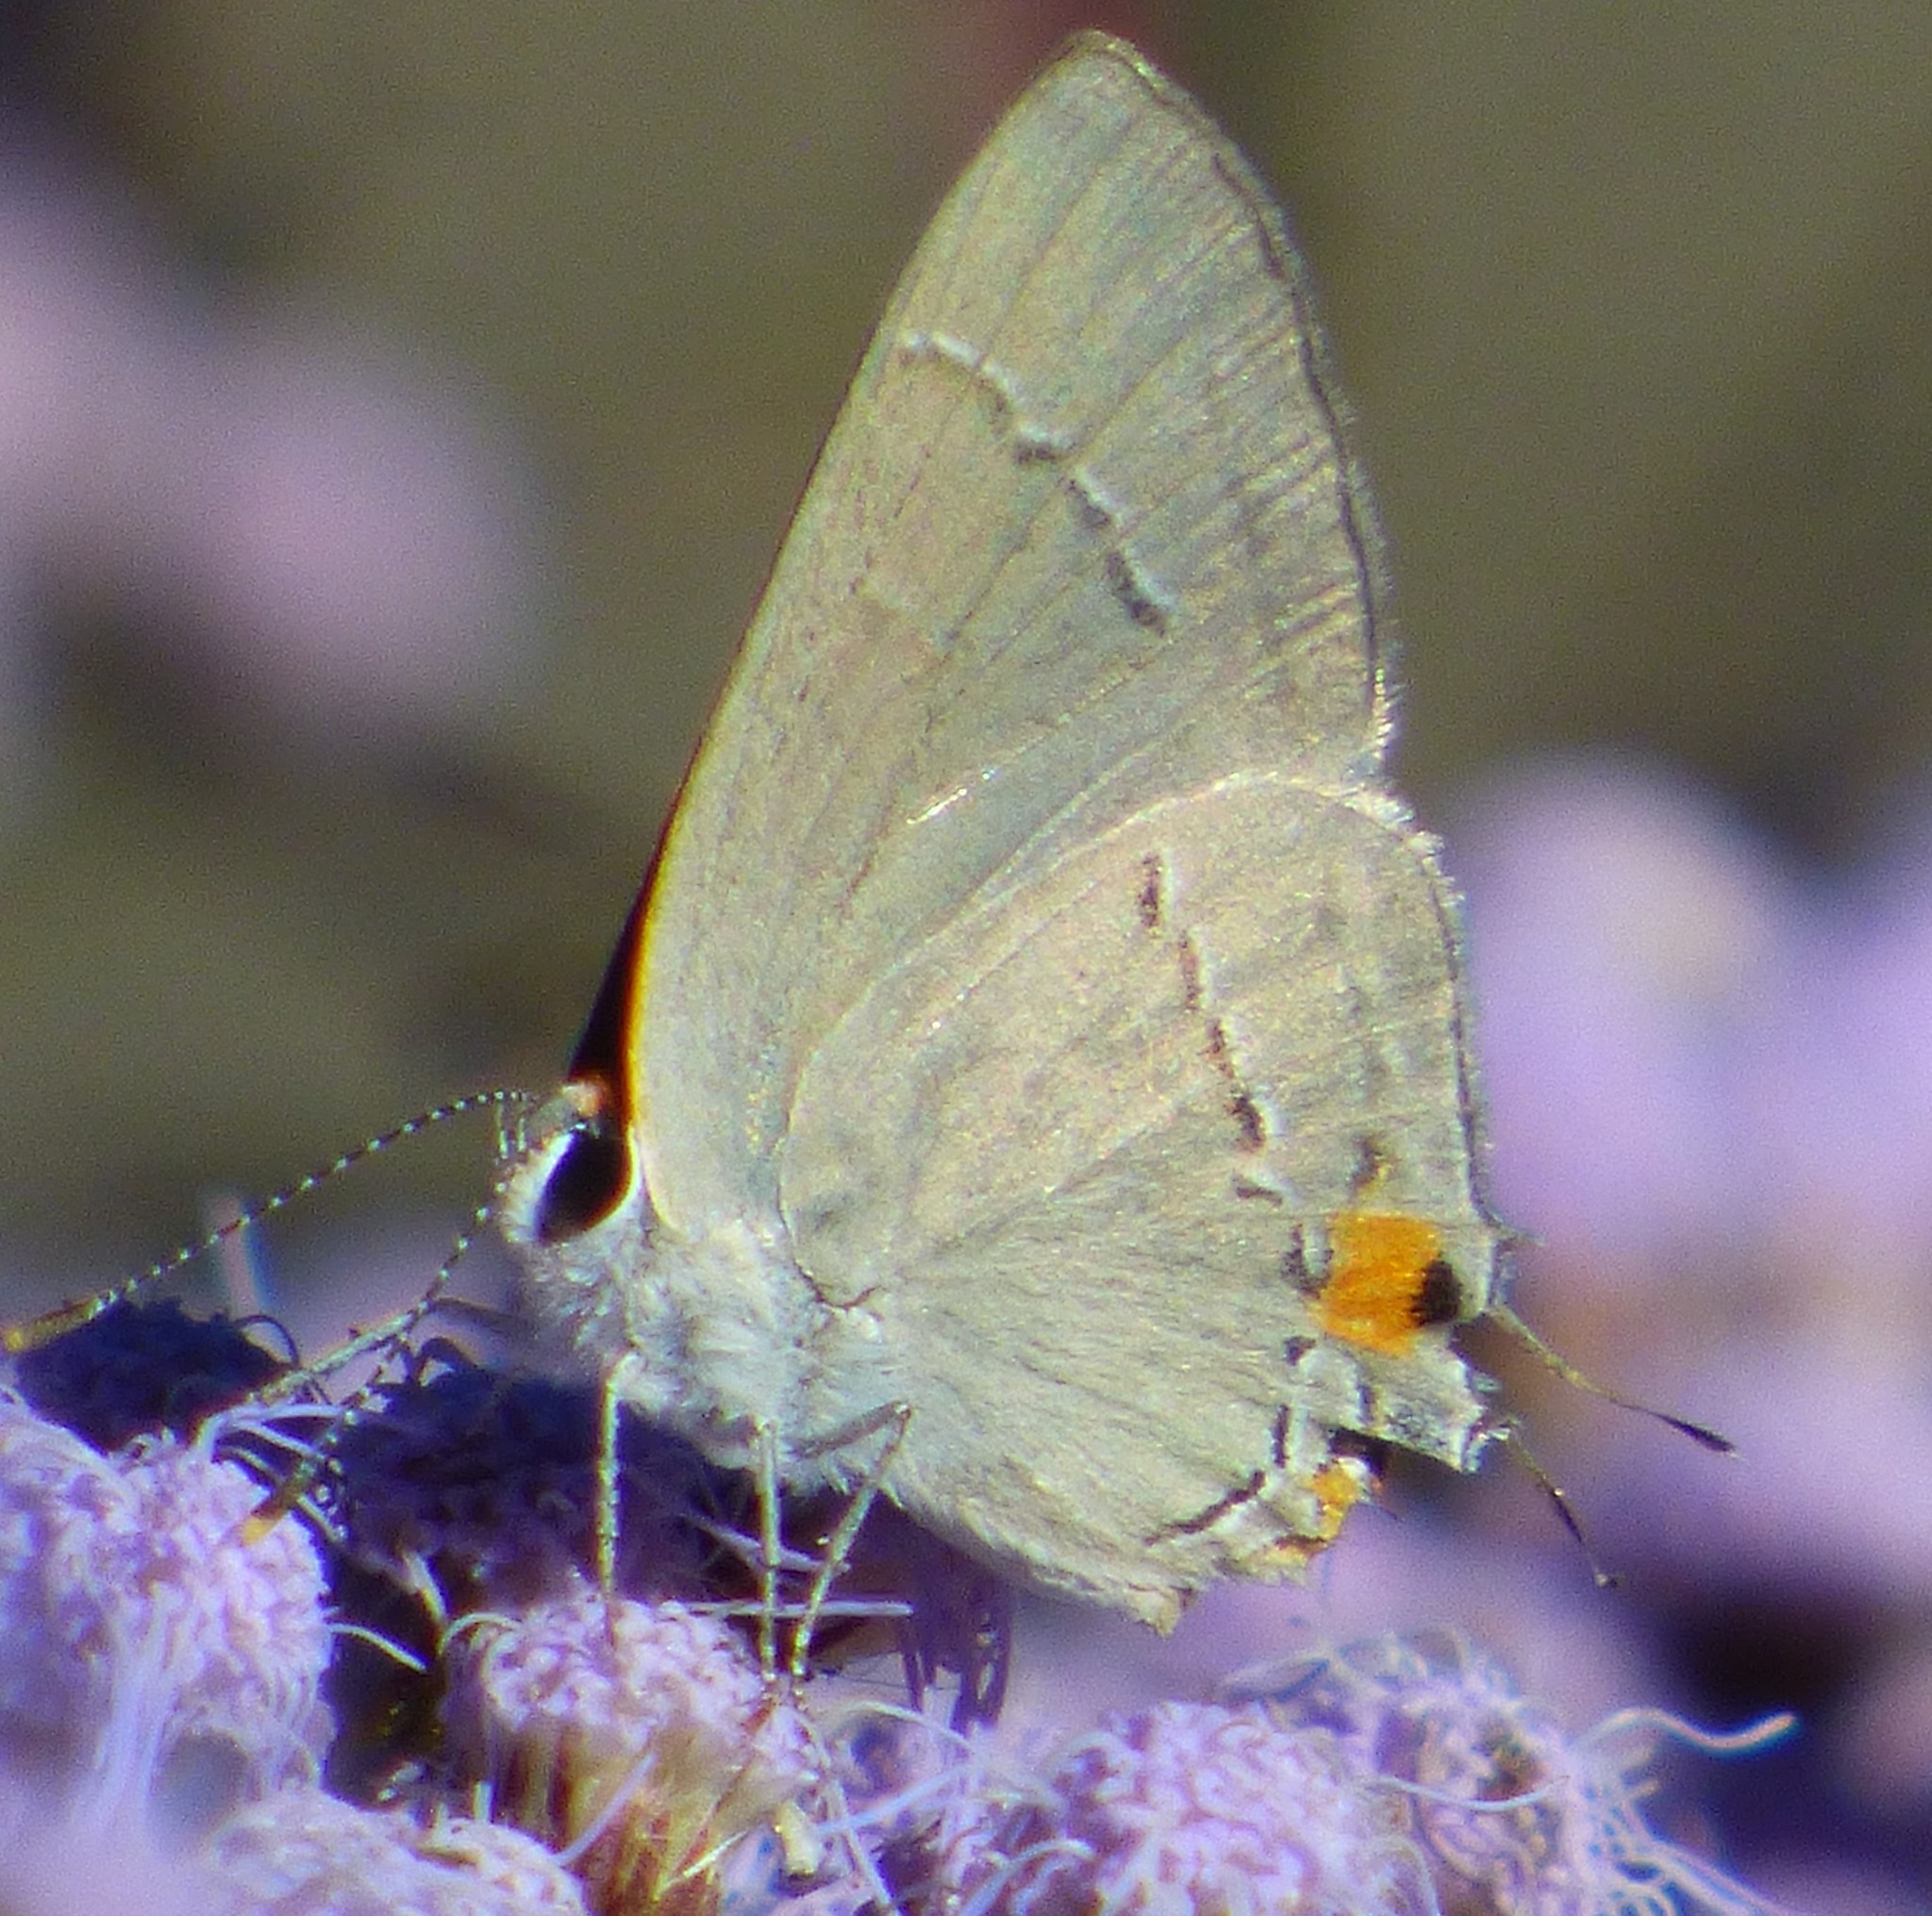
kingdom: Animalia
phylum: Arthropoda
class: Insecta
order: Lepidoptera
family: Lycaenidae
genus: Strymon
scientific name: Strymon melinus
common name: Gray hairstreak
